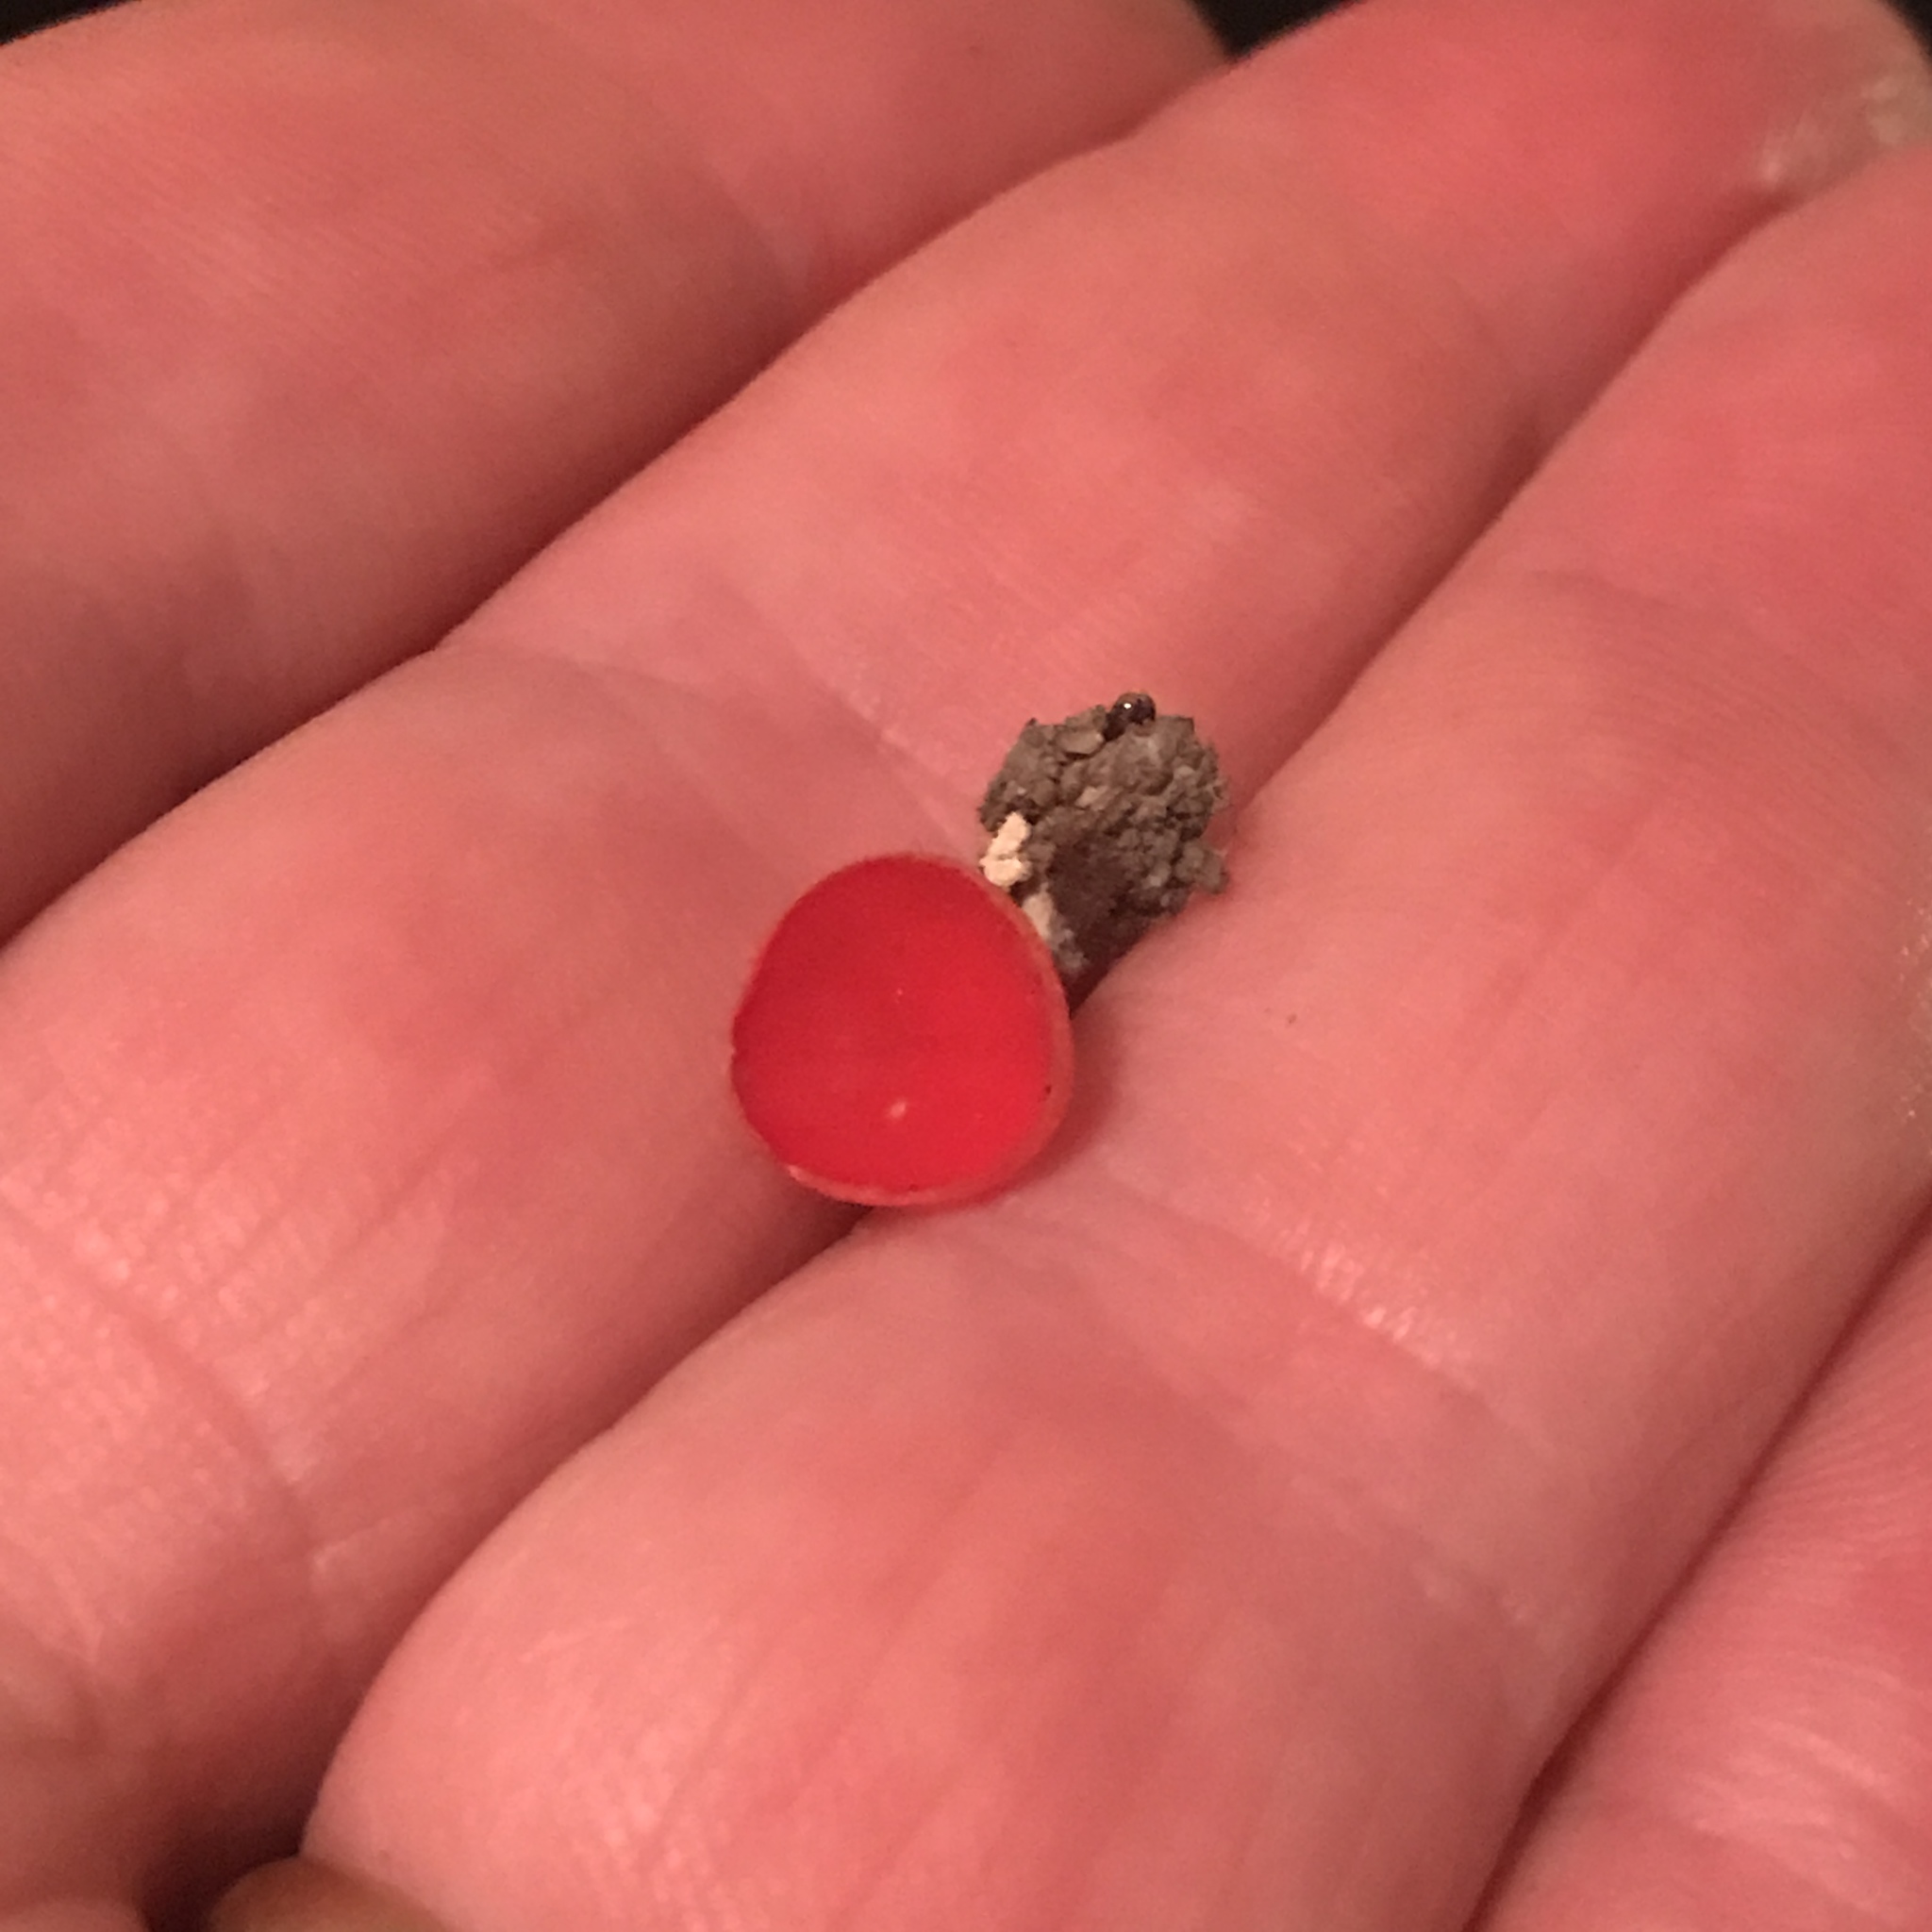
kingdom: Fungi
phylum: Ascomycota
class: Pezizomycetes
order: Pezizales
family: Sarcoscyphaceae
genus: Sarcoscypha
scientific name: Sarcoscypha occidentalis
